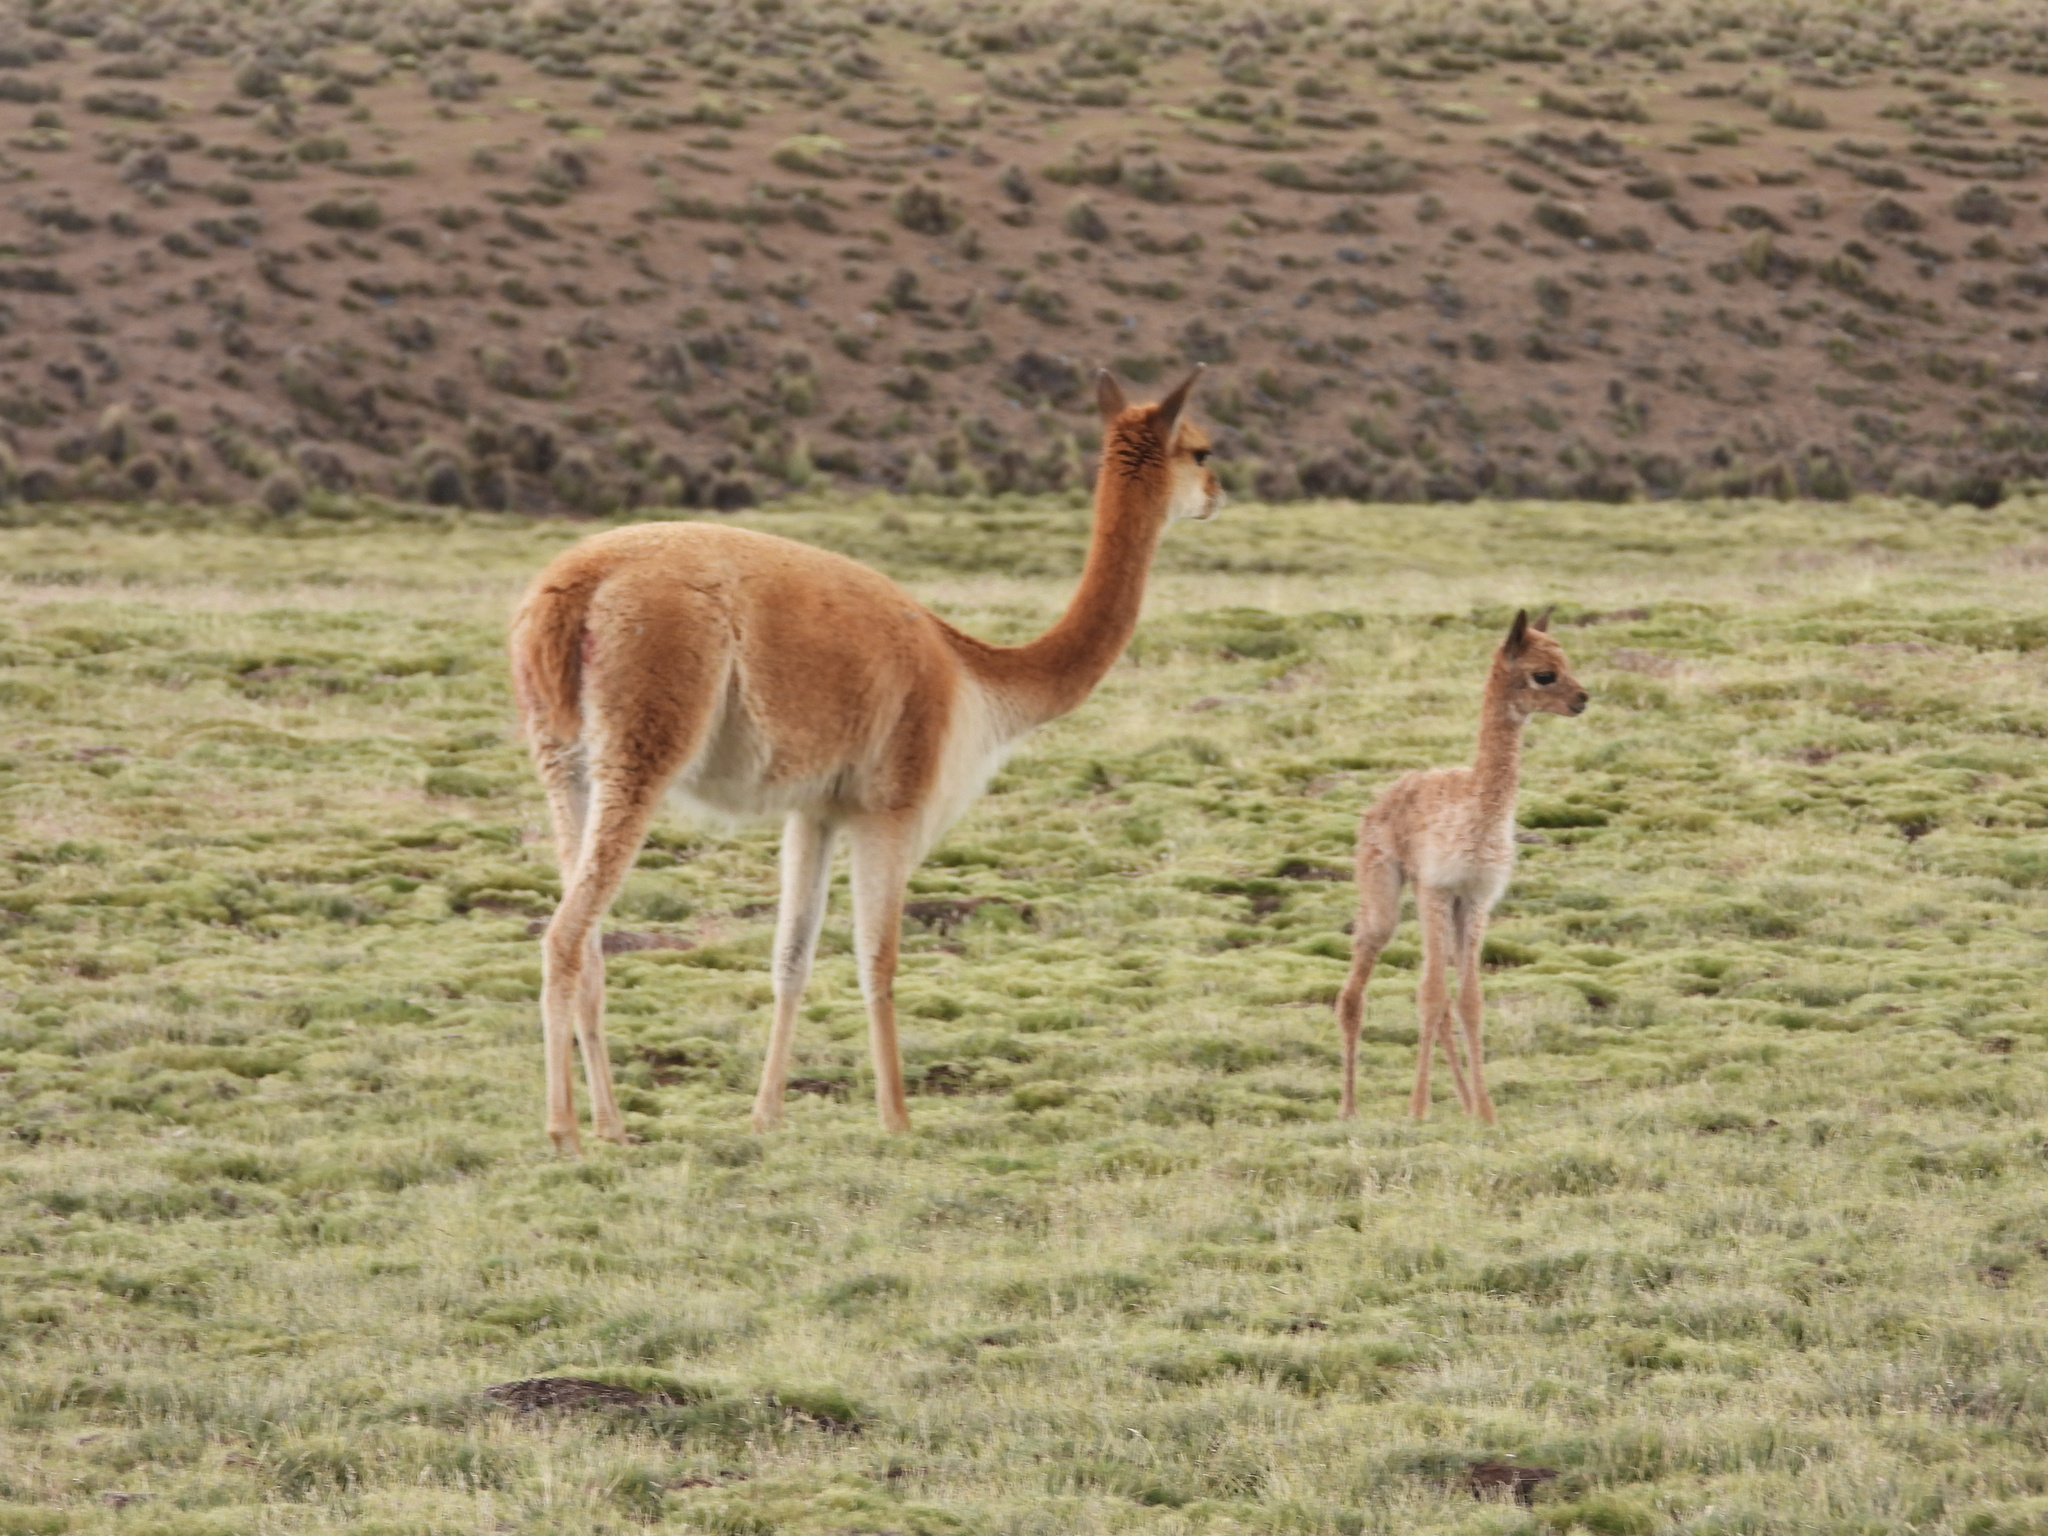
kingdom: Animalia
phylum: Chordata
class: Mammalia
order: Artiodactyla
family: Camelidae
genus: Vicugna
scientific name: Vicugna vicugna
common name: Vicugna
